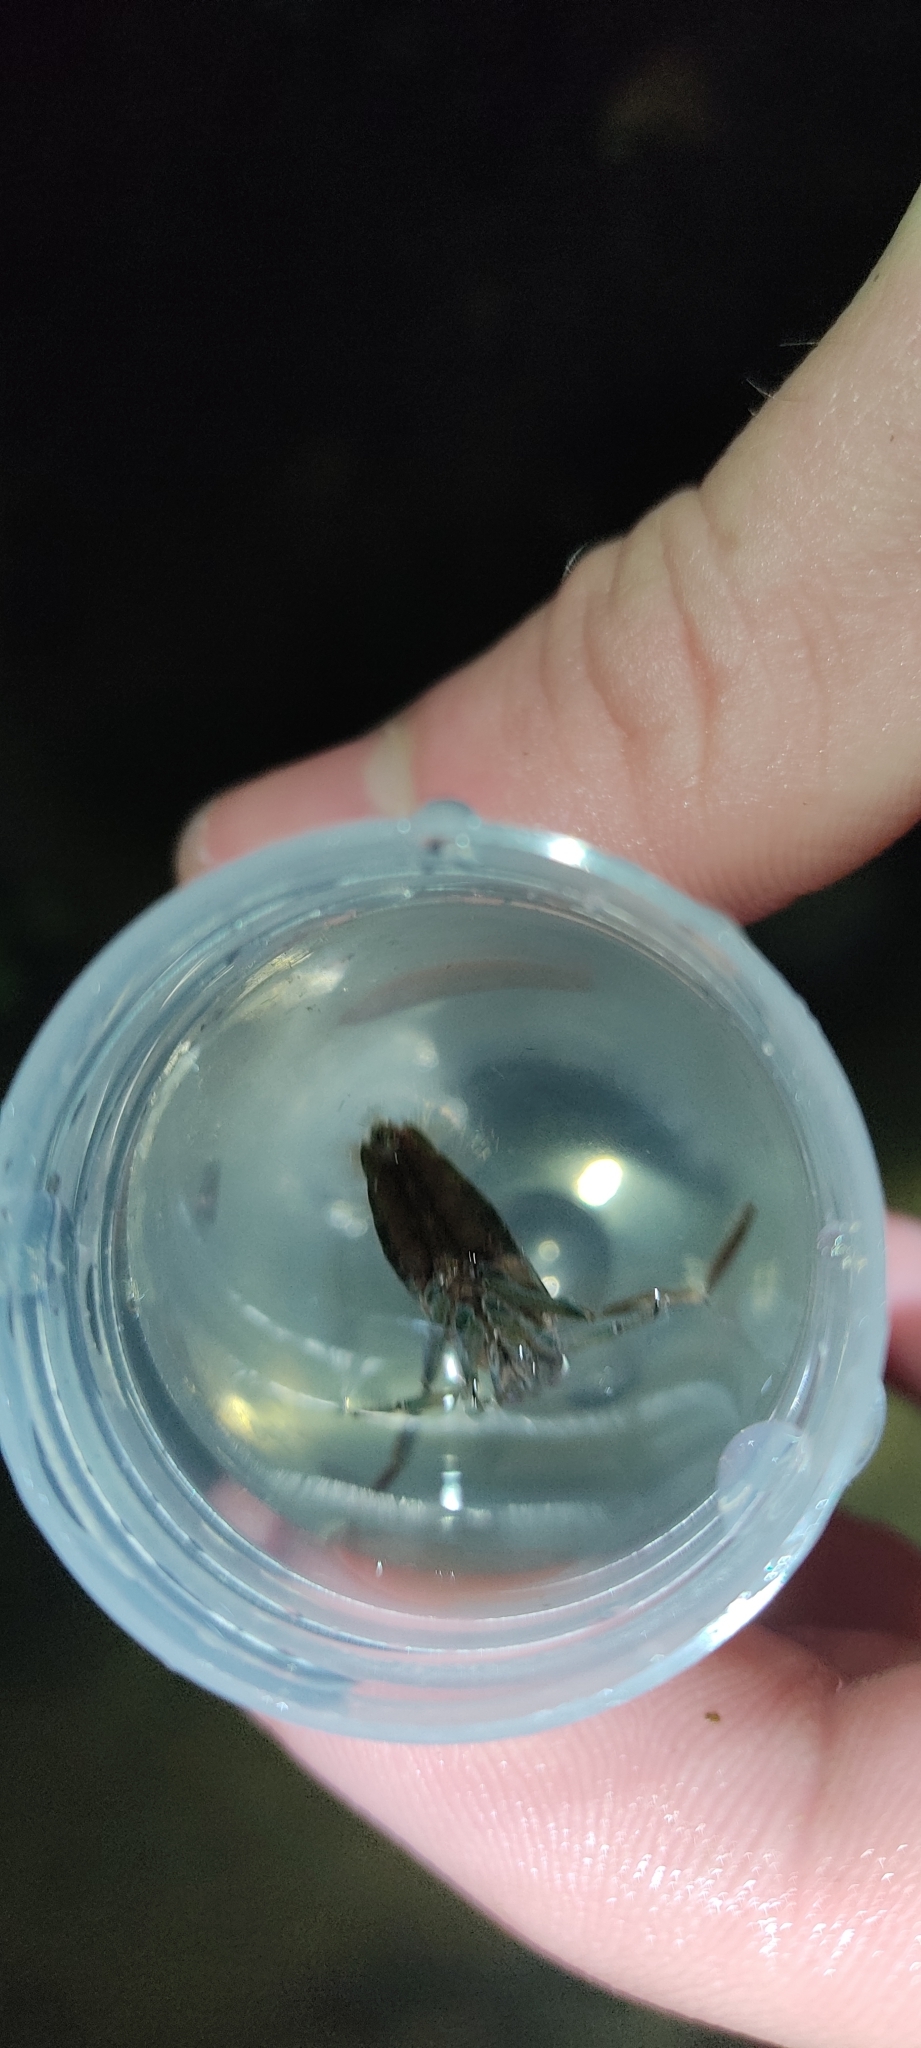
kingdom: Animalia
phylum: Arthropoda
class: Insecta
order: Hemiptera
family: Notonectidae
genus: Notonecta
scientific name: Notonecta
